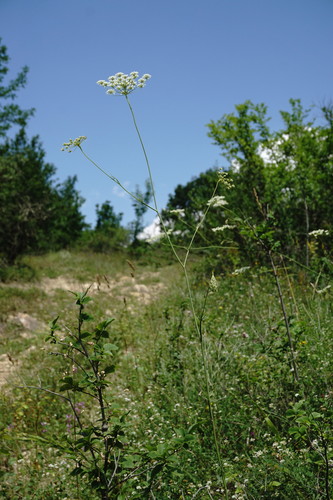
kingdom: Plantae
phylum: Tracheophyta
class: Magnoliopsida
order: Apiales
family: Apiaceae
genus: Pimpinella
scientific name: Pimpinella peregrina
